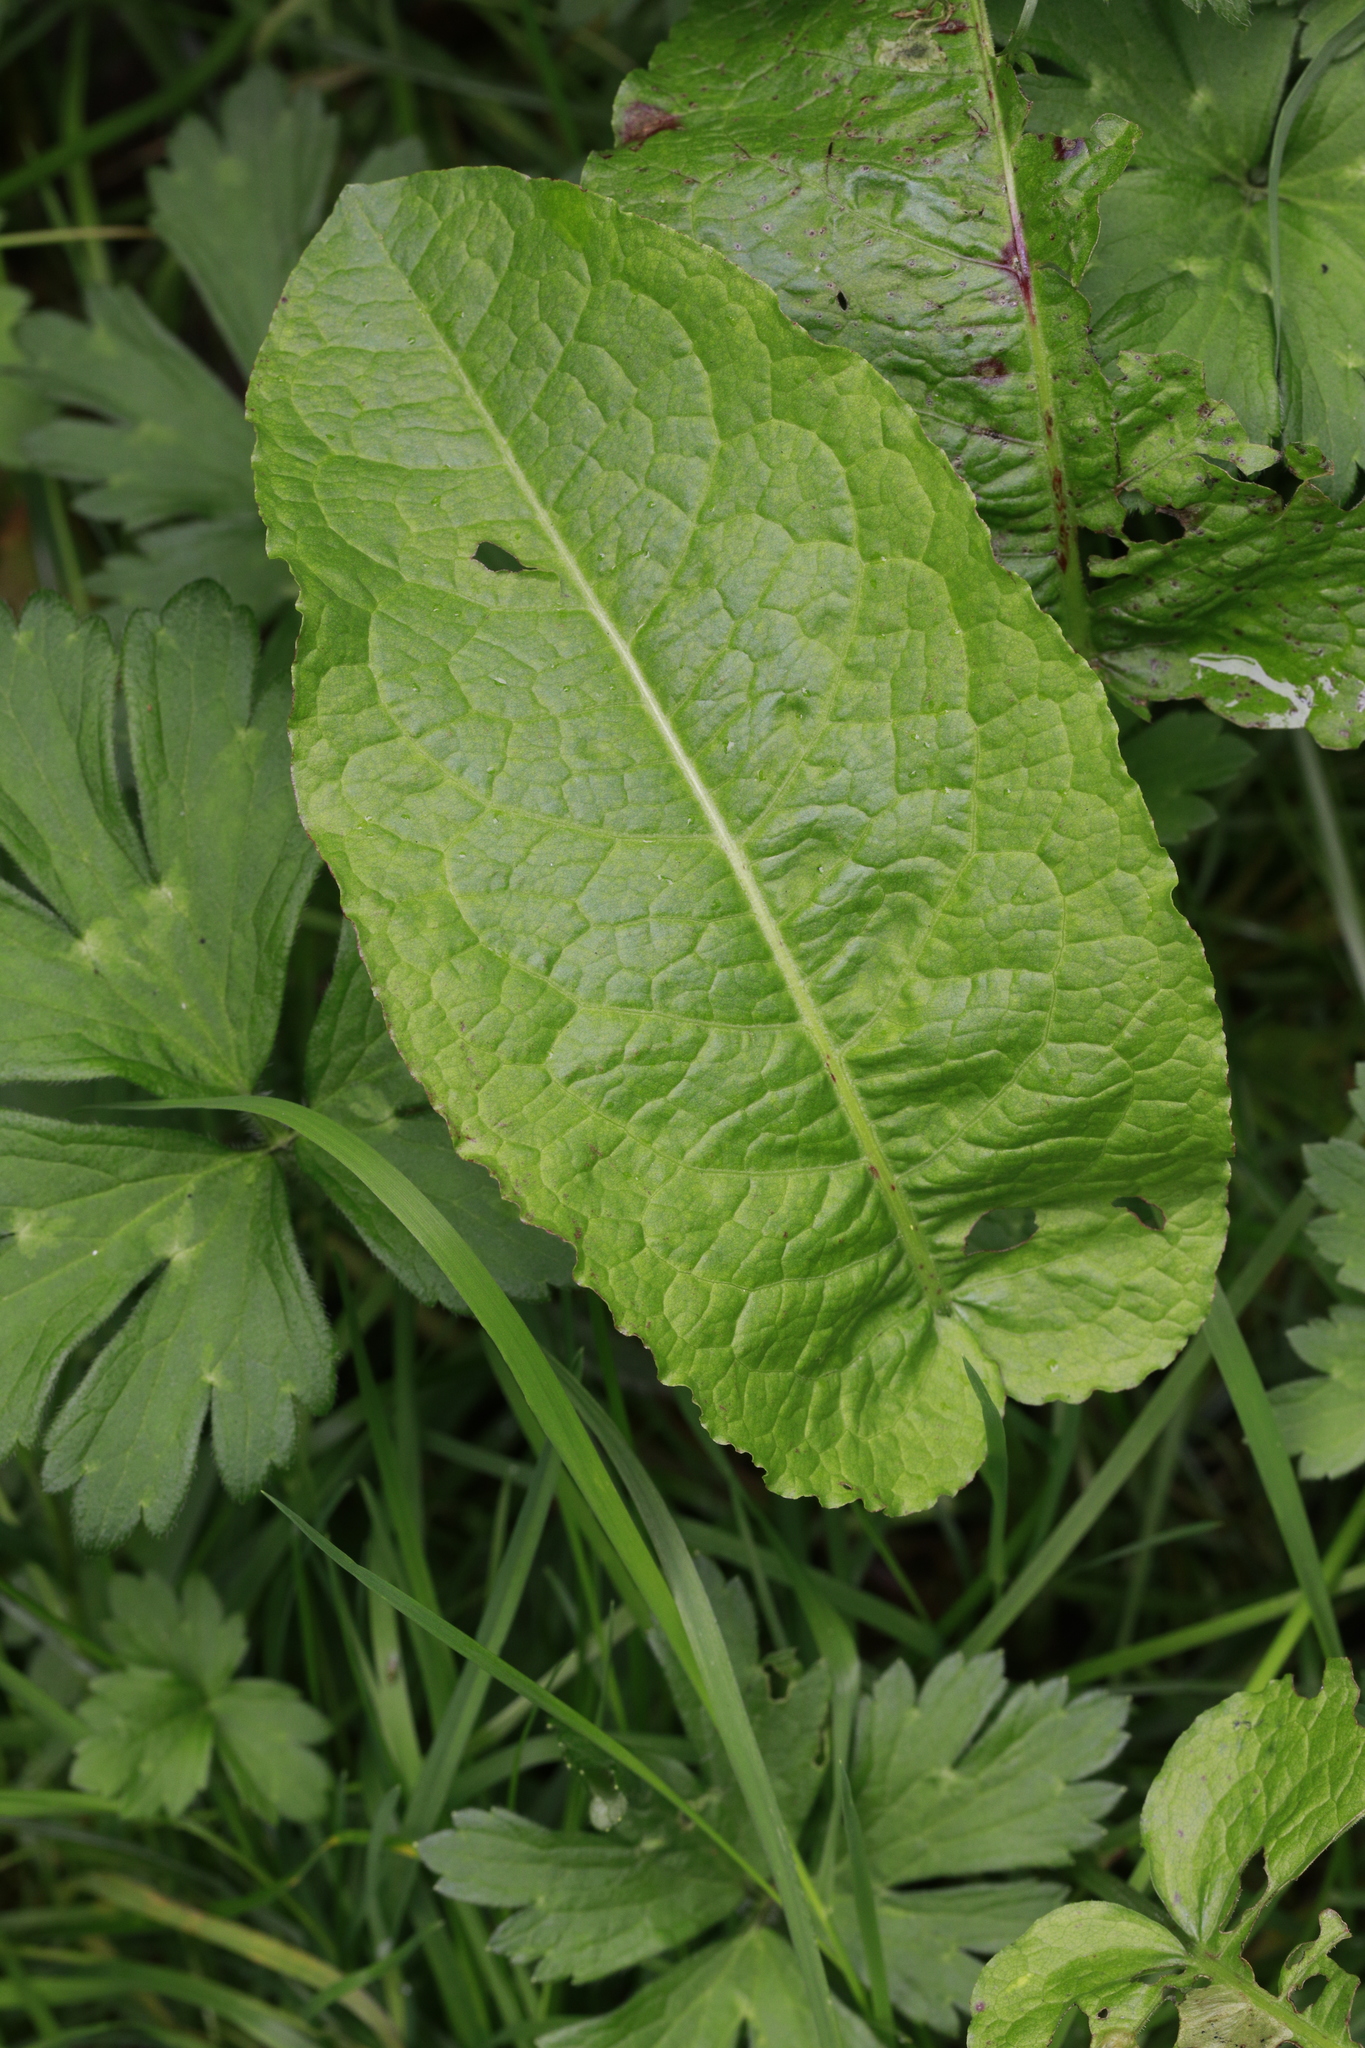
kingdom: Plantae
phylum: Tracheophyta
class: Magnoliopsida
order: Caryophyllales
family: Polygonaceae
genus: Rumex
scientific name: Rumex obtusifolius
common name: Bitter dock
